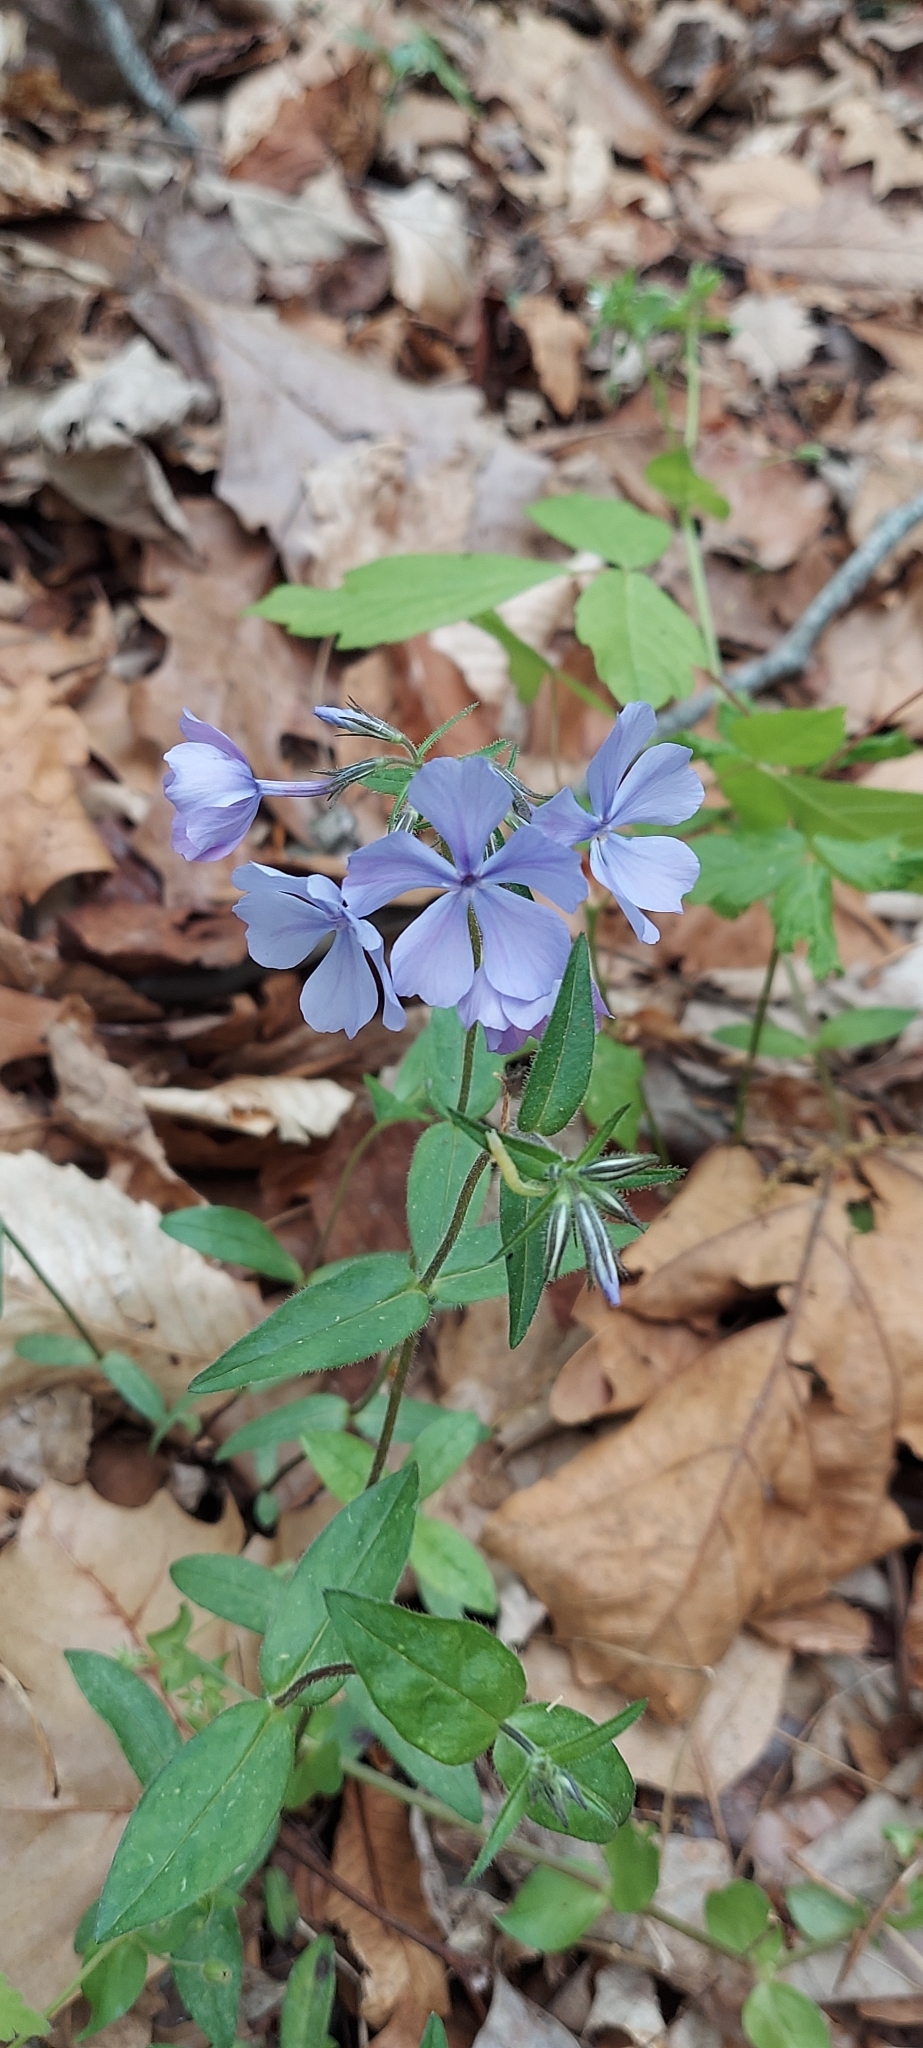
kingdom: Plantae
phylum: Tracheophyta
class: Magnoliopsida
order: Ericales
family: Polemoniaceae
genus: Phlox
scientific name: Phlox divaricata
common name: Blue phlox
